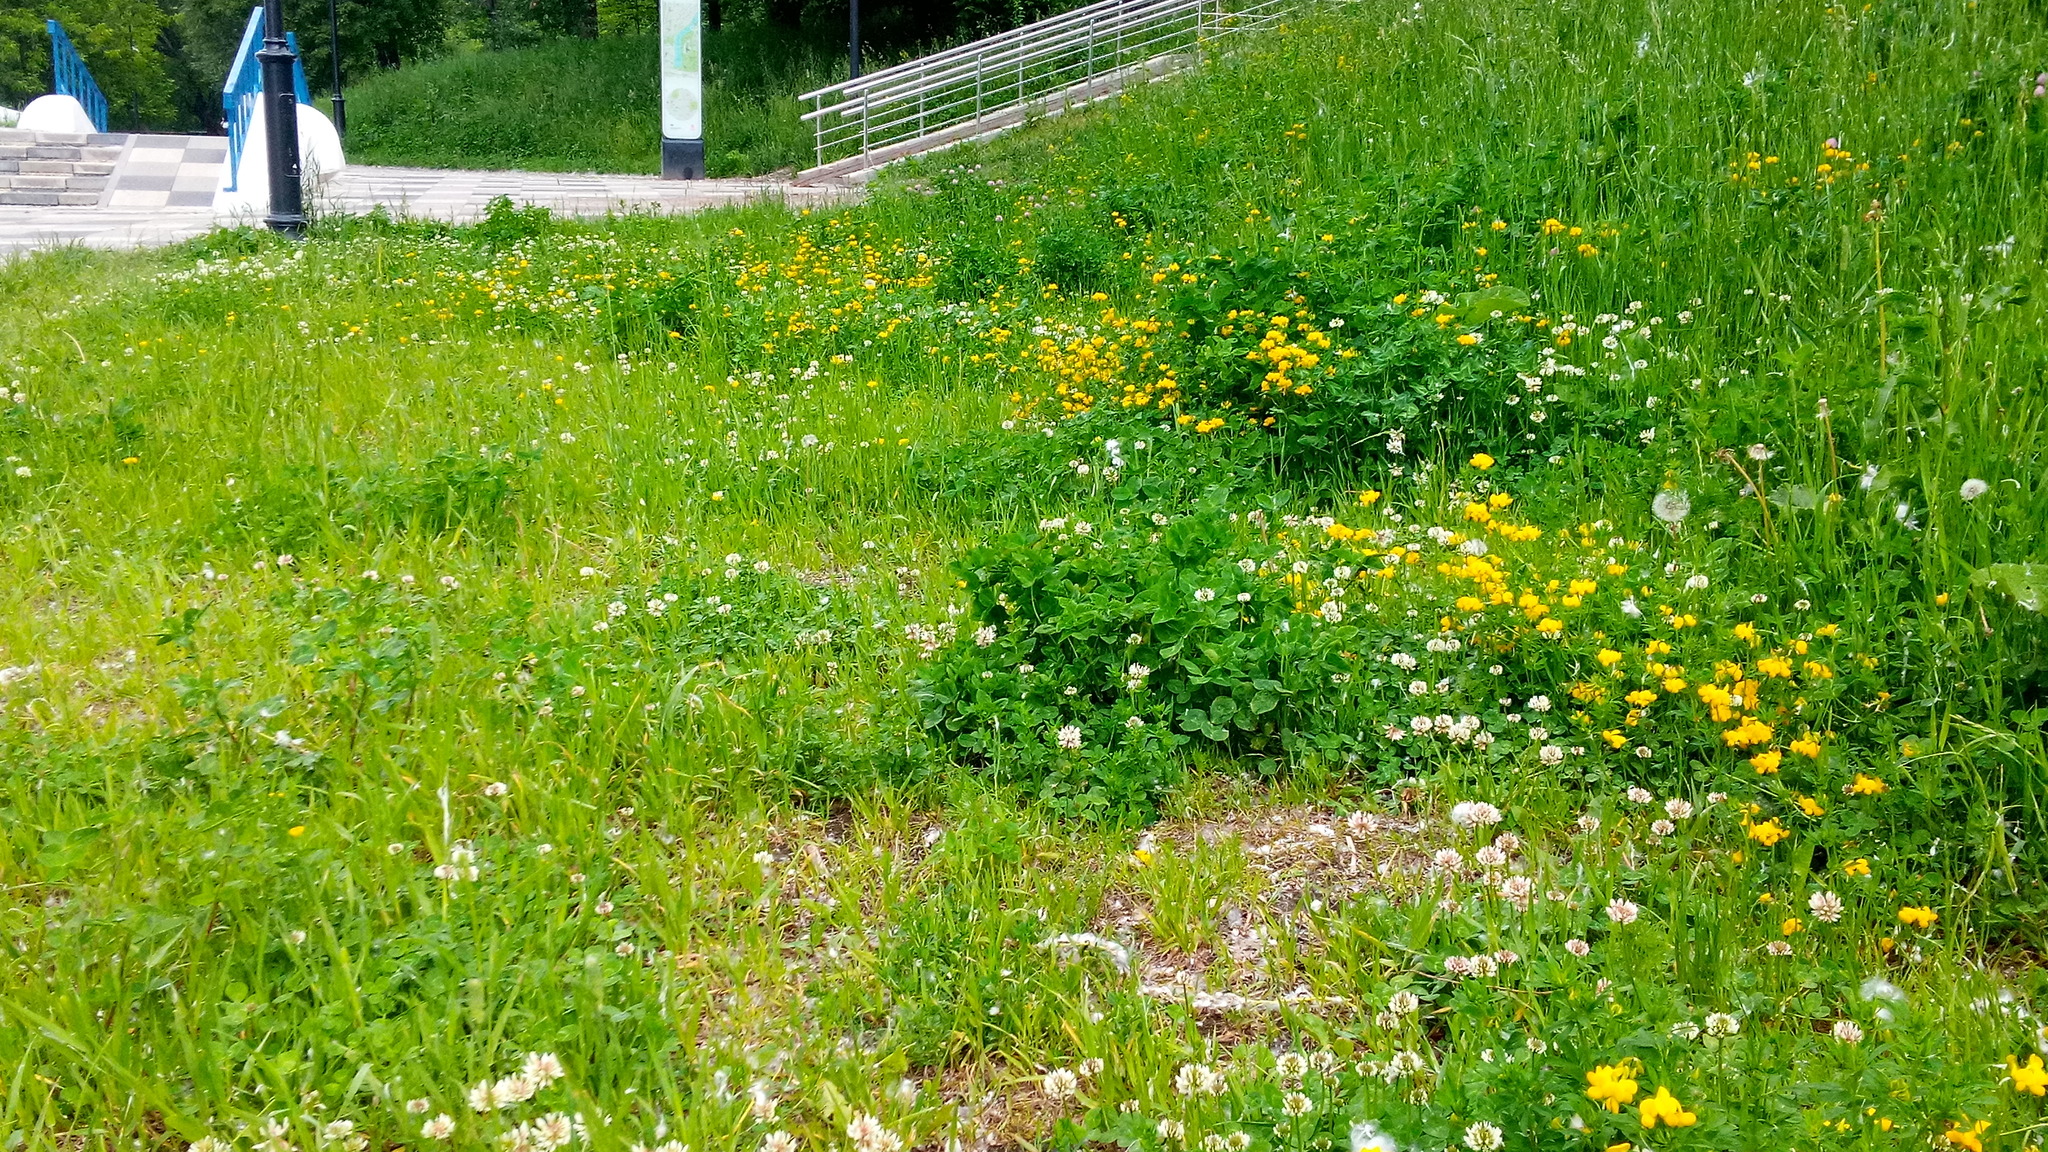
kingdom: Plantae
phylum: Tracheophyta
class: Magnoliopsida
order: Fabales
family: Fabaceae
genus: Lotus
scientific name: Lotus corniculatus
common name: Common bird's-foot-trefoil
